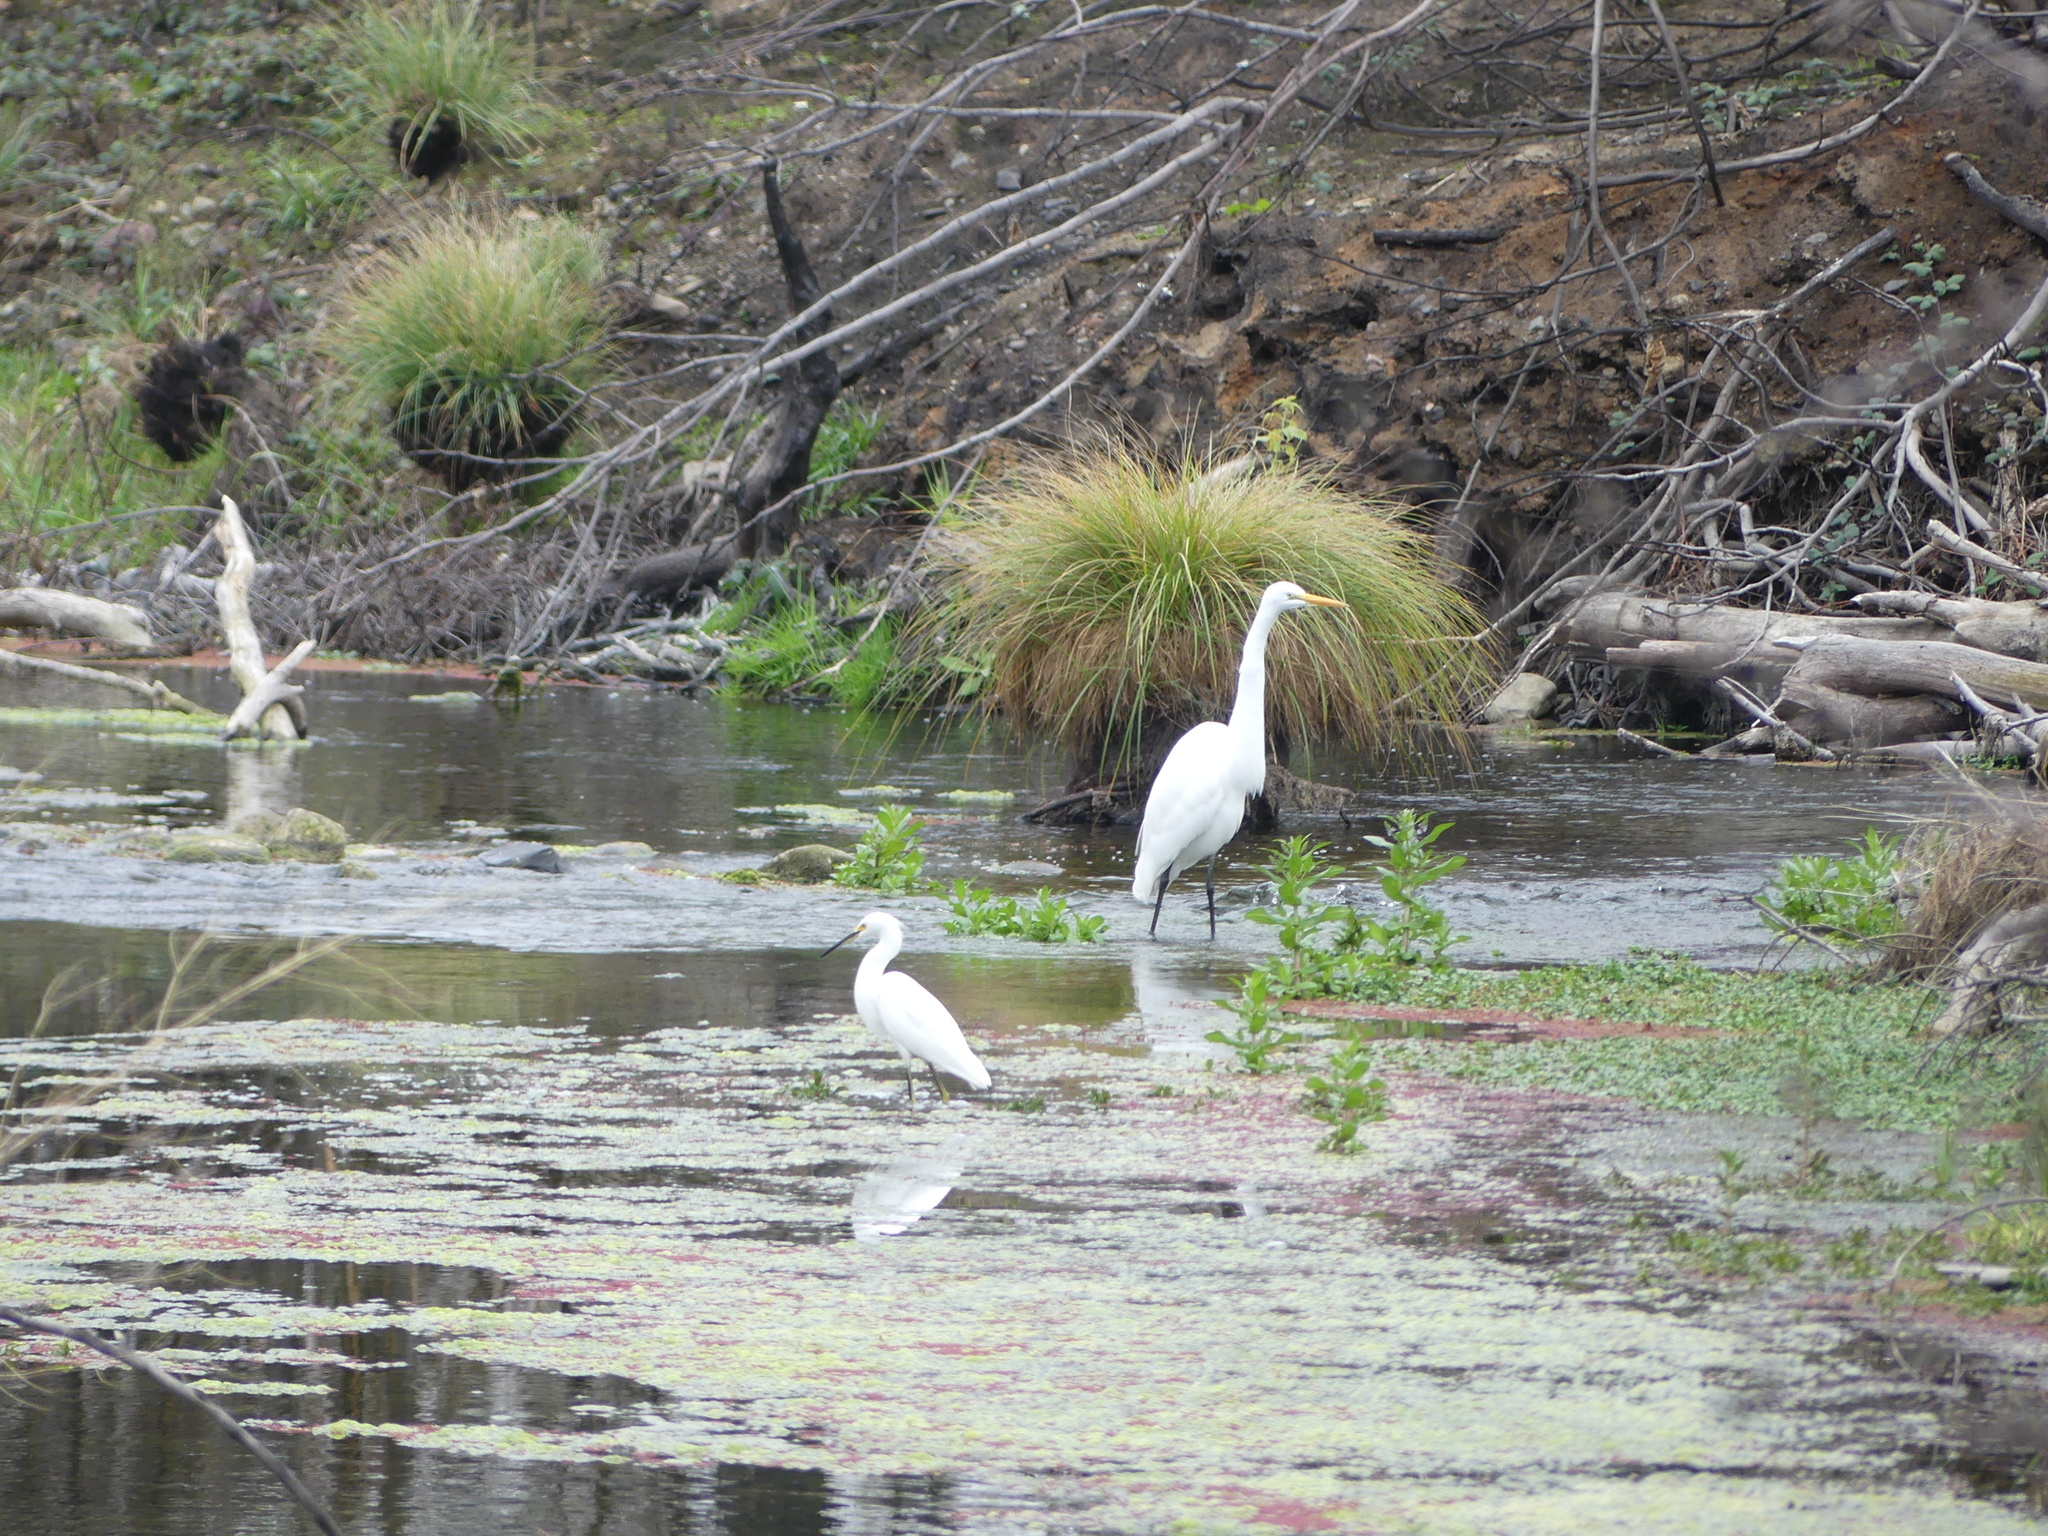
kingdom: Animalia
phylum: Chordata
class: Aves
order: Pelecaniformes
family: Ardeidae
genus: Egretta
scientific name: Egretta thula
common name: Snowy egret
